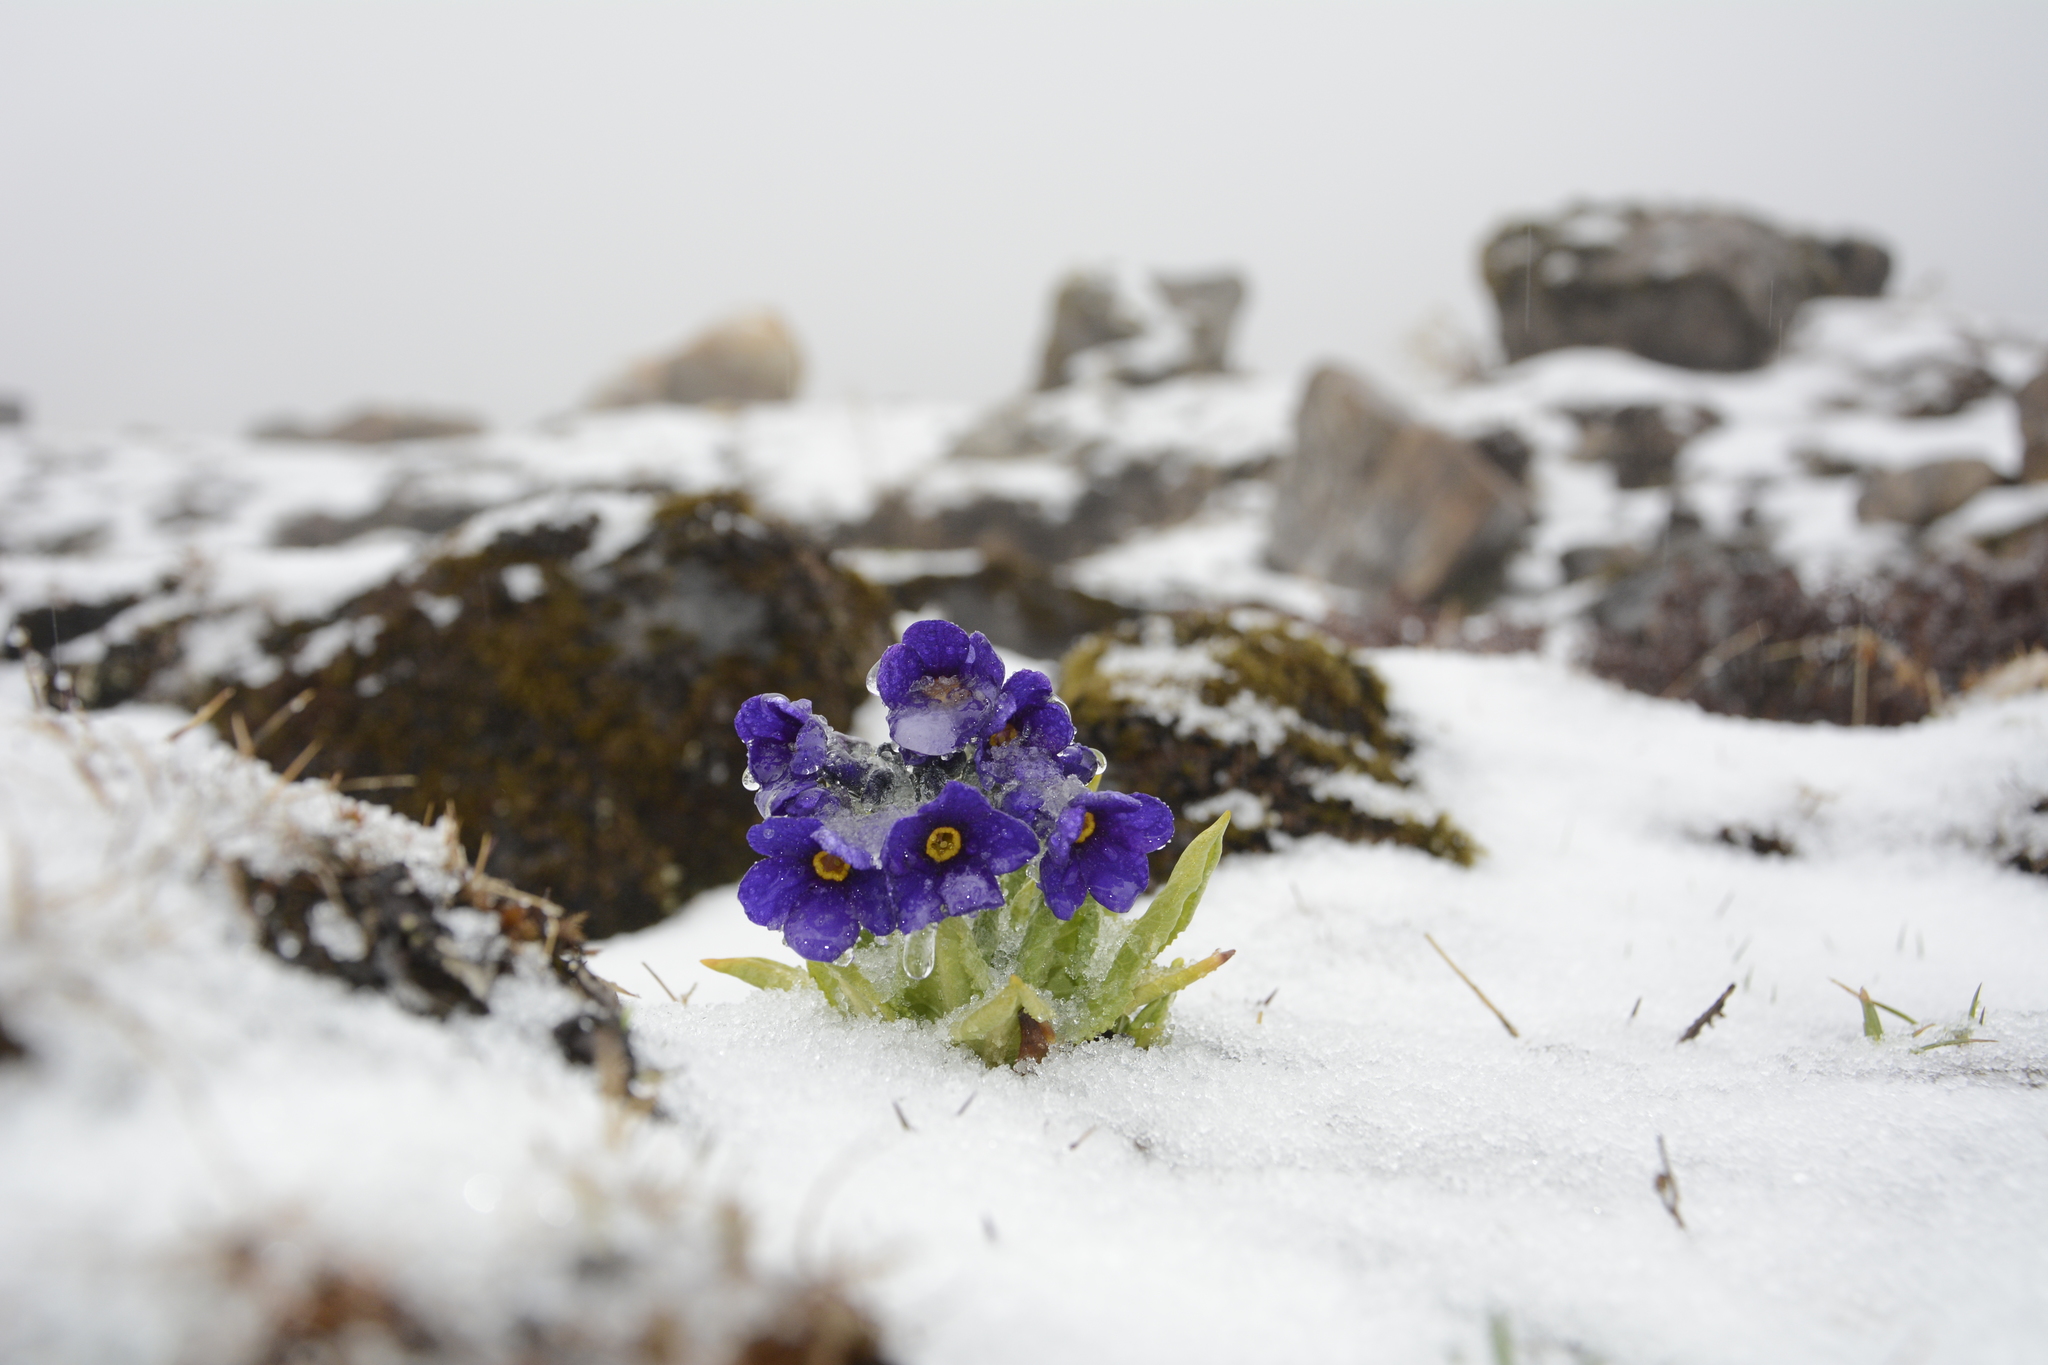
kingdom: Plantae
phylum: Tracheophyta
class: Magnoliopsida
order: Ericales
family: Primulaceae
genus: Primula
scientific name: Primula calderiana
